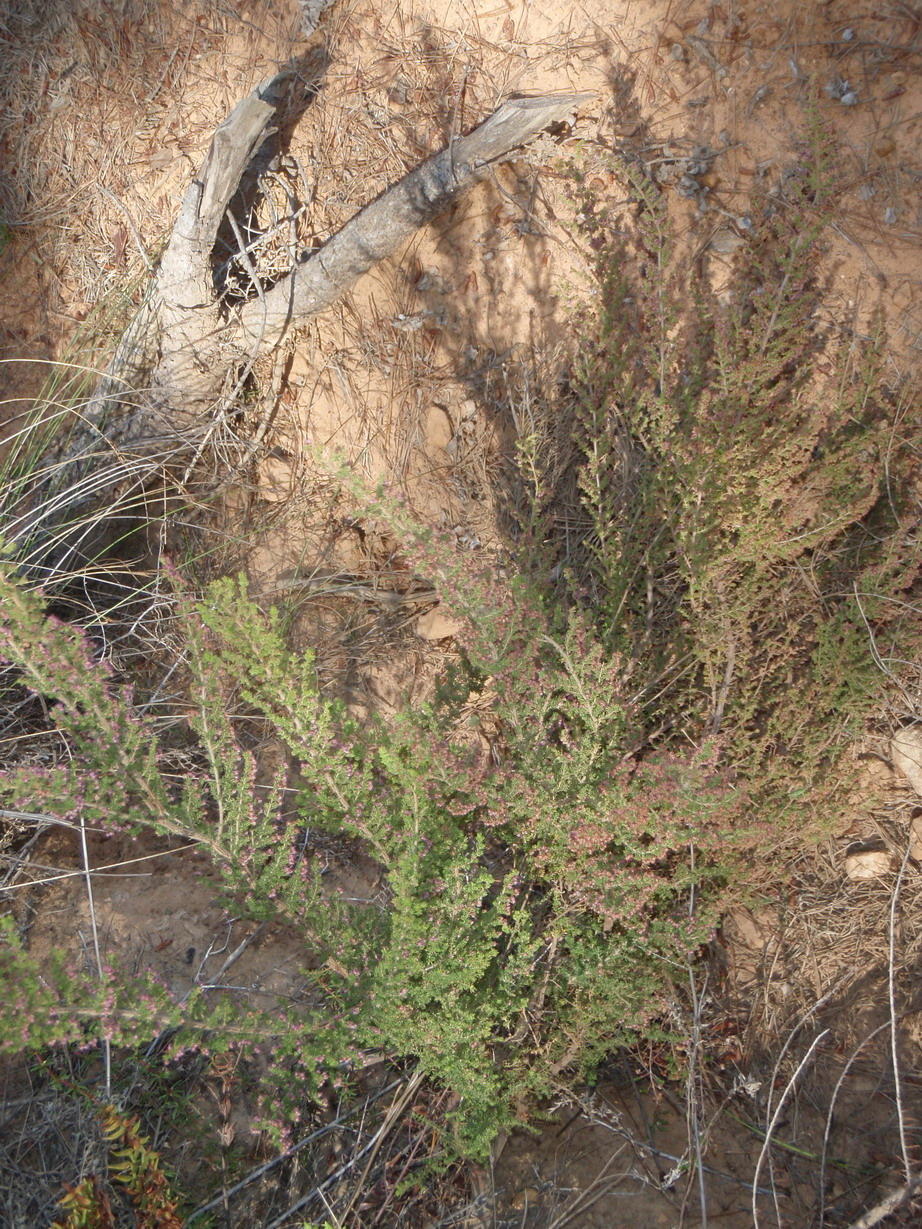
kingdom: Plantae
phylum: Tracheophyta
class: Magnoliopsida
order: Ericales
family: Ericaceae
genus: Erica
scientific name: Erica hispidula
